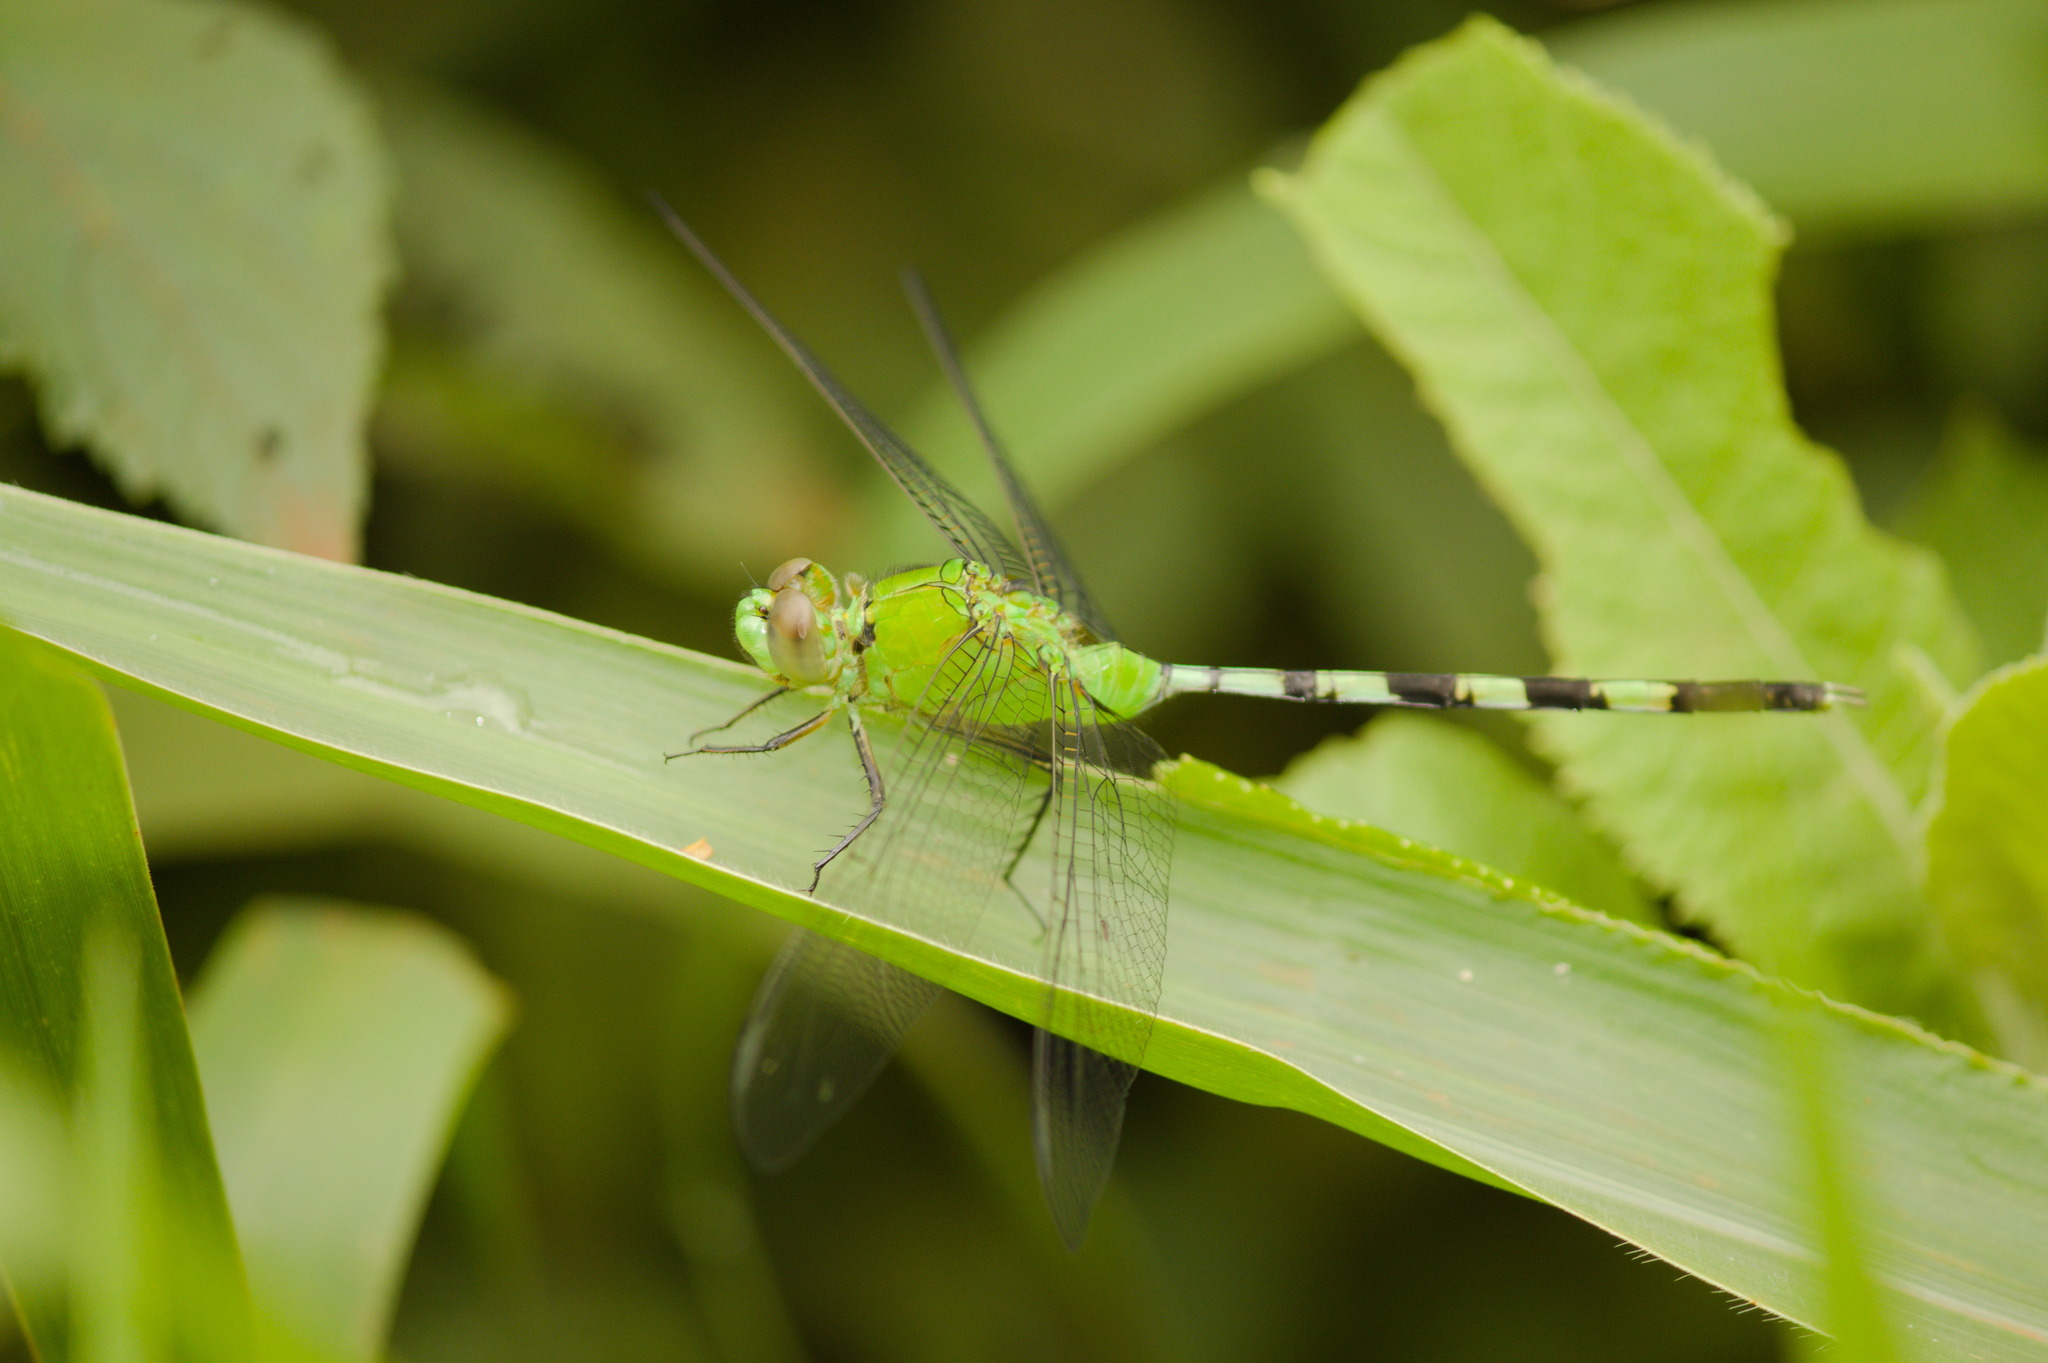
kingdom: Animalia
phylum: Arthropoda
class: Insecta
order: Odonata
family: Libellulidae
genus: Erythemis
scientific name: Erythemis vesiculosa
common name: Great pondhawk
